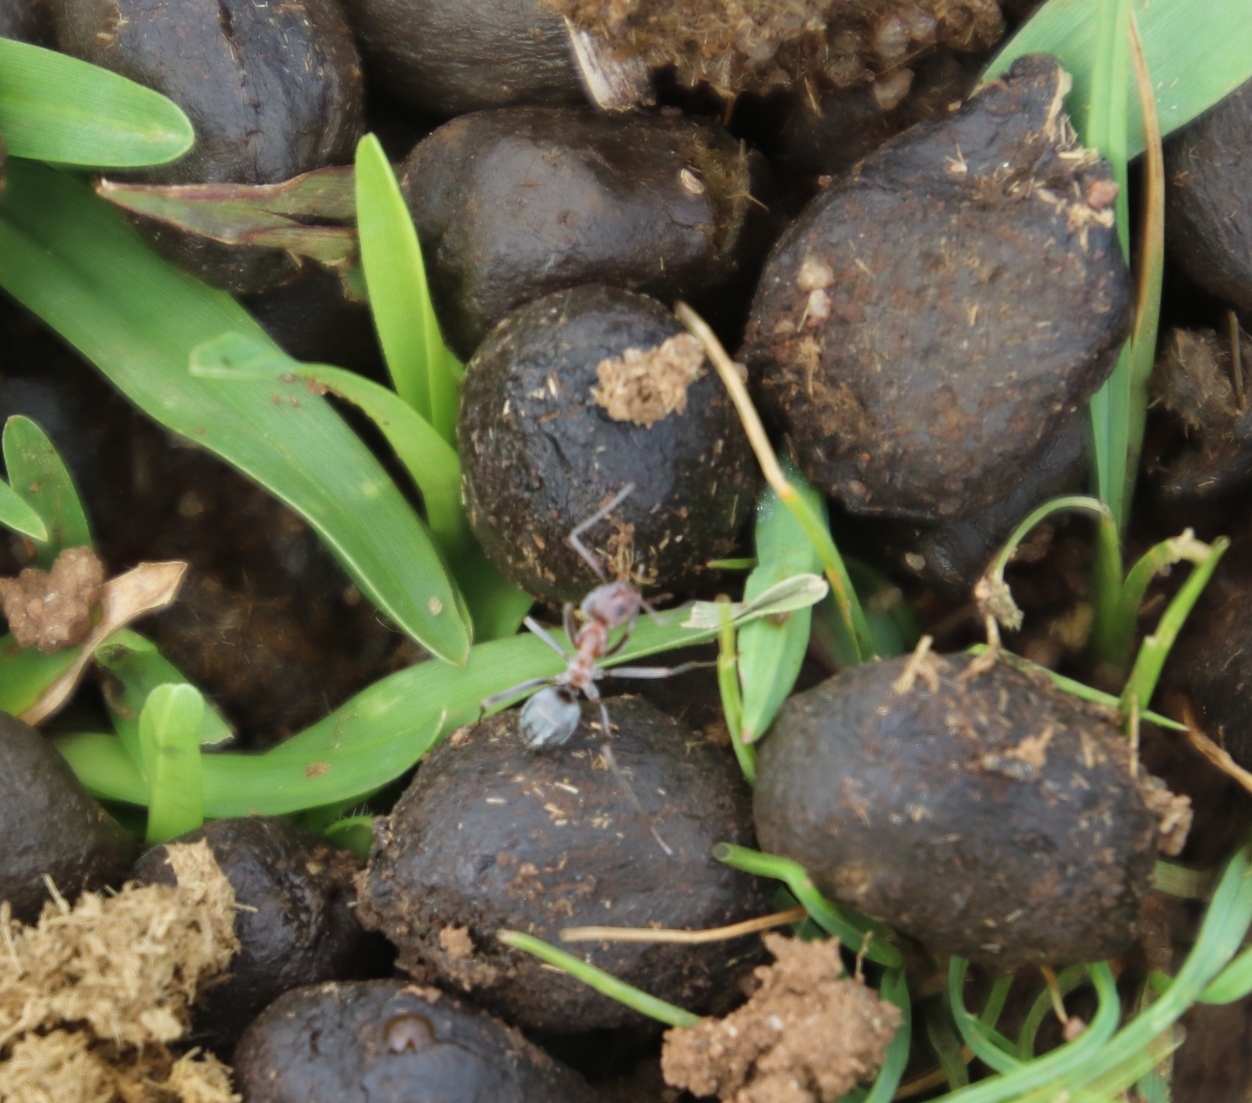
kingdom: Animalia
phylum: Arthropoda
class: Insecta
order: Hymenoptera
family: Formicidae
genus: Anoplolepis
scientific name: Anoplolepis custodiens
